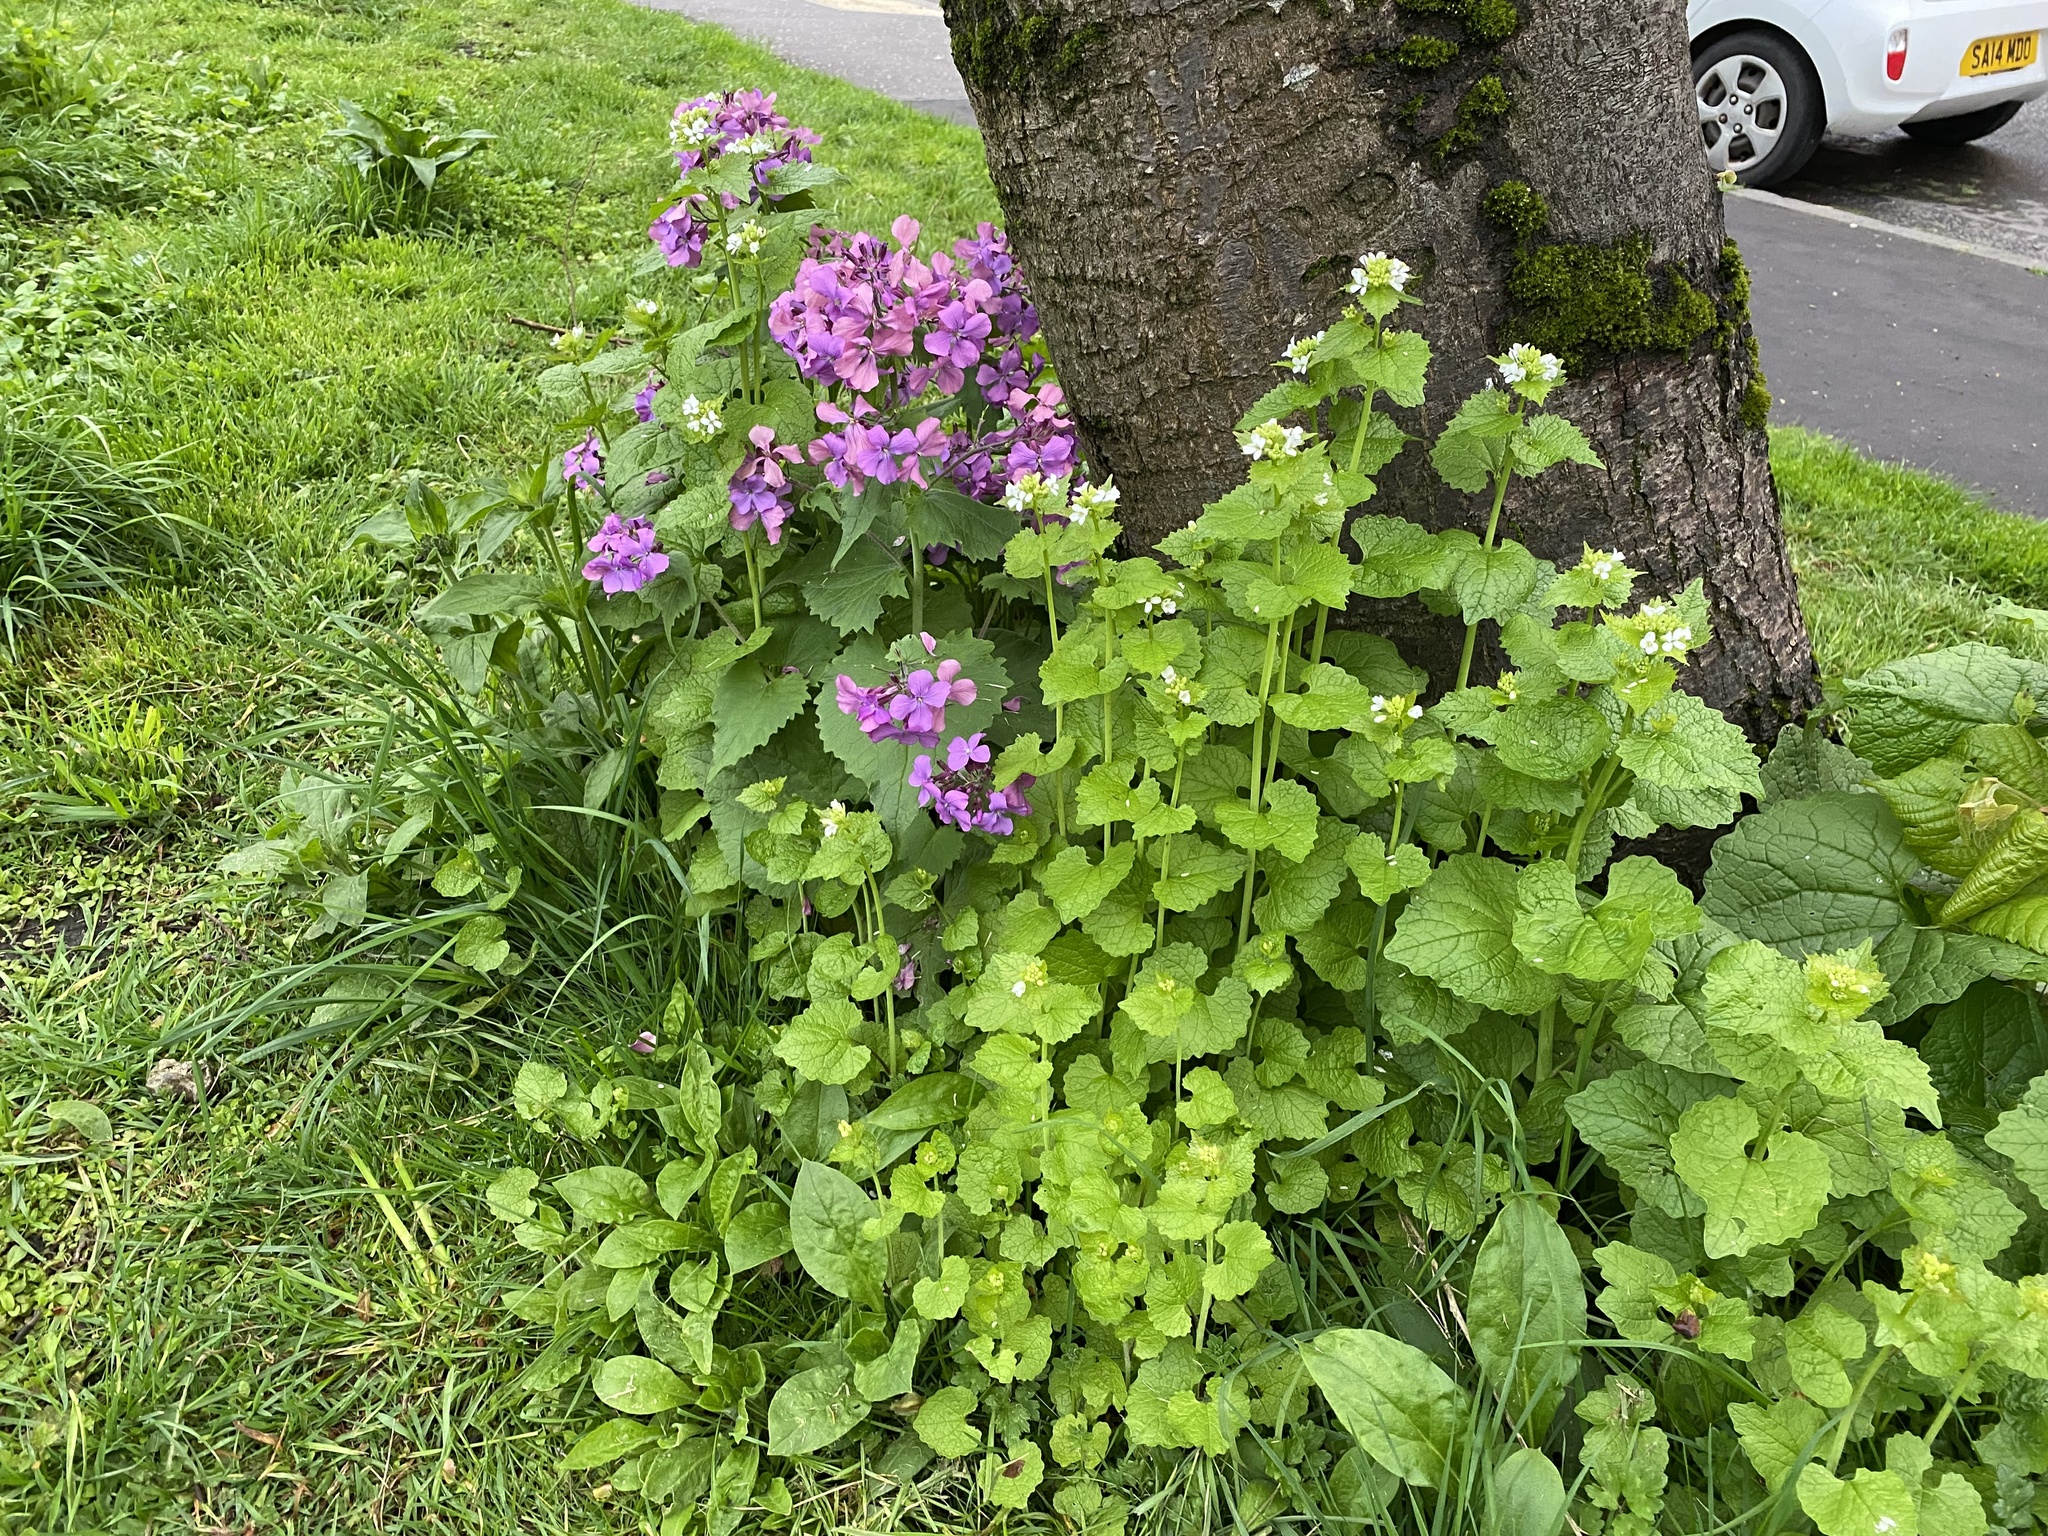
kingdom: Plantae
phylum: Tracheophyta
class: Magnoliopsida
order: Brassicales
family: Brassicaceae
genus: Lunaria
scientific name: Lunaria annua
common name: Honesty
